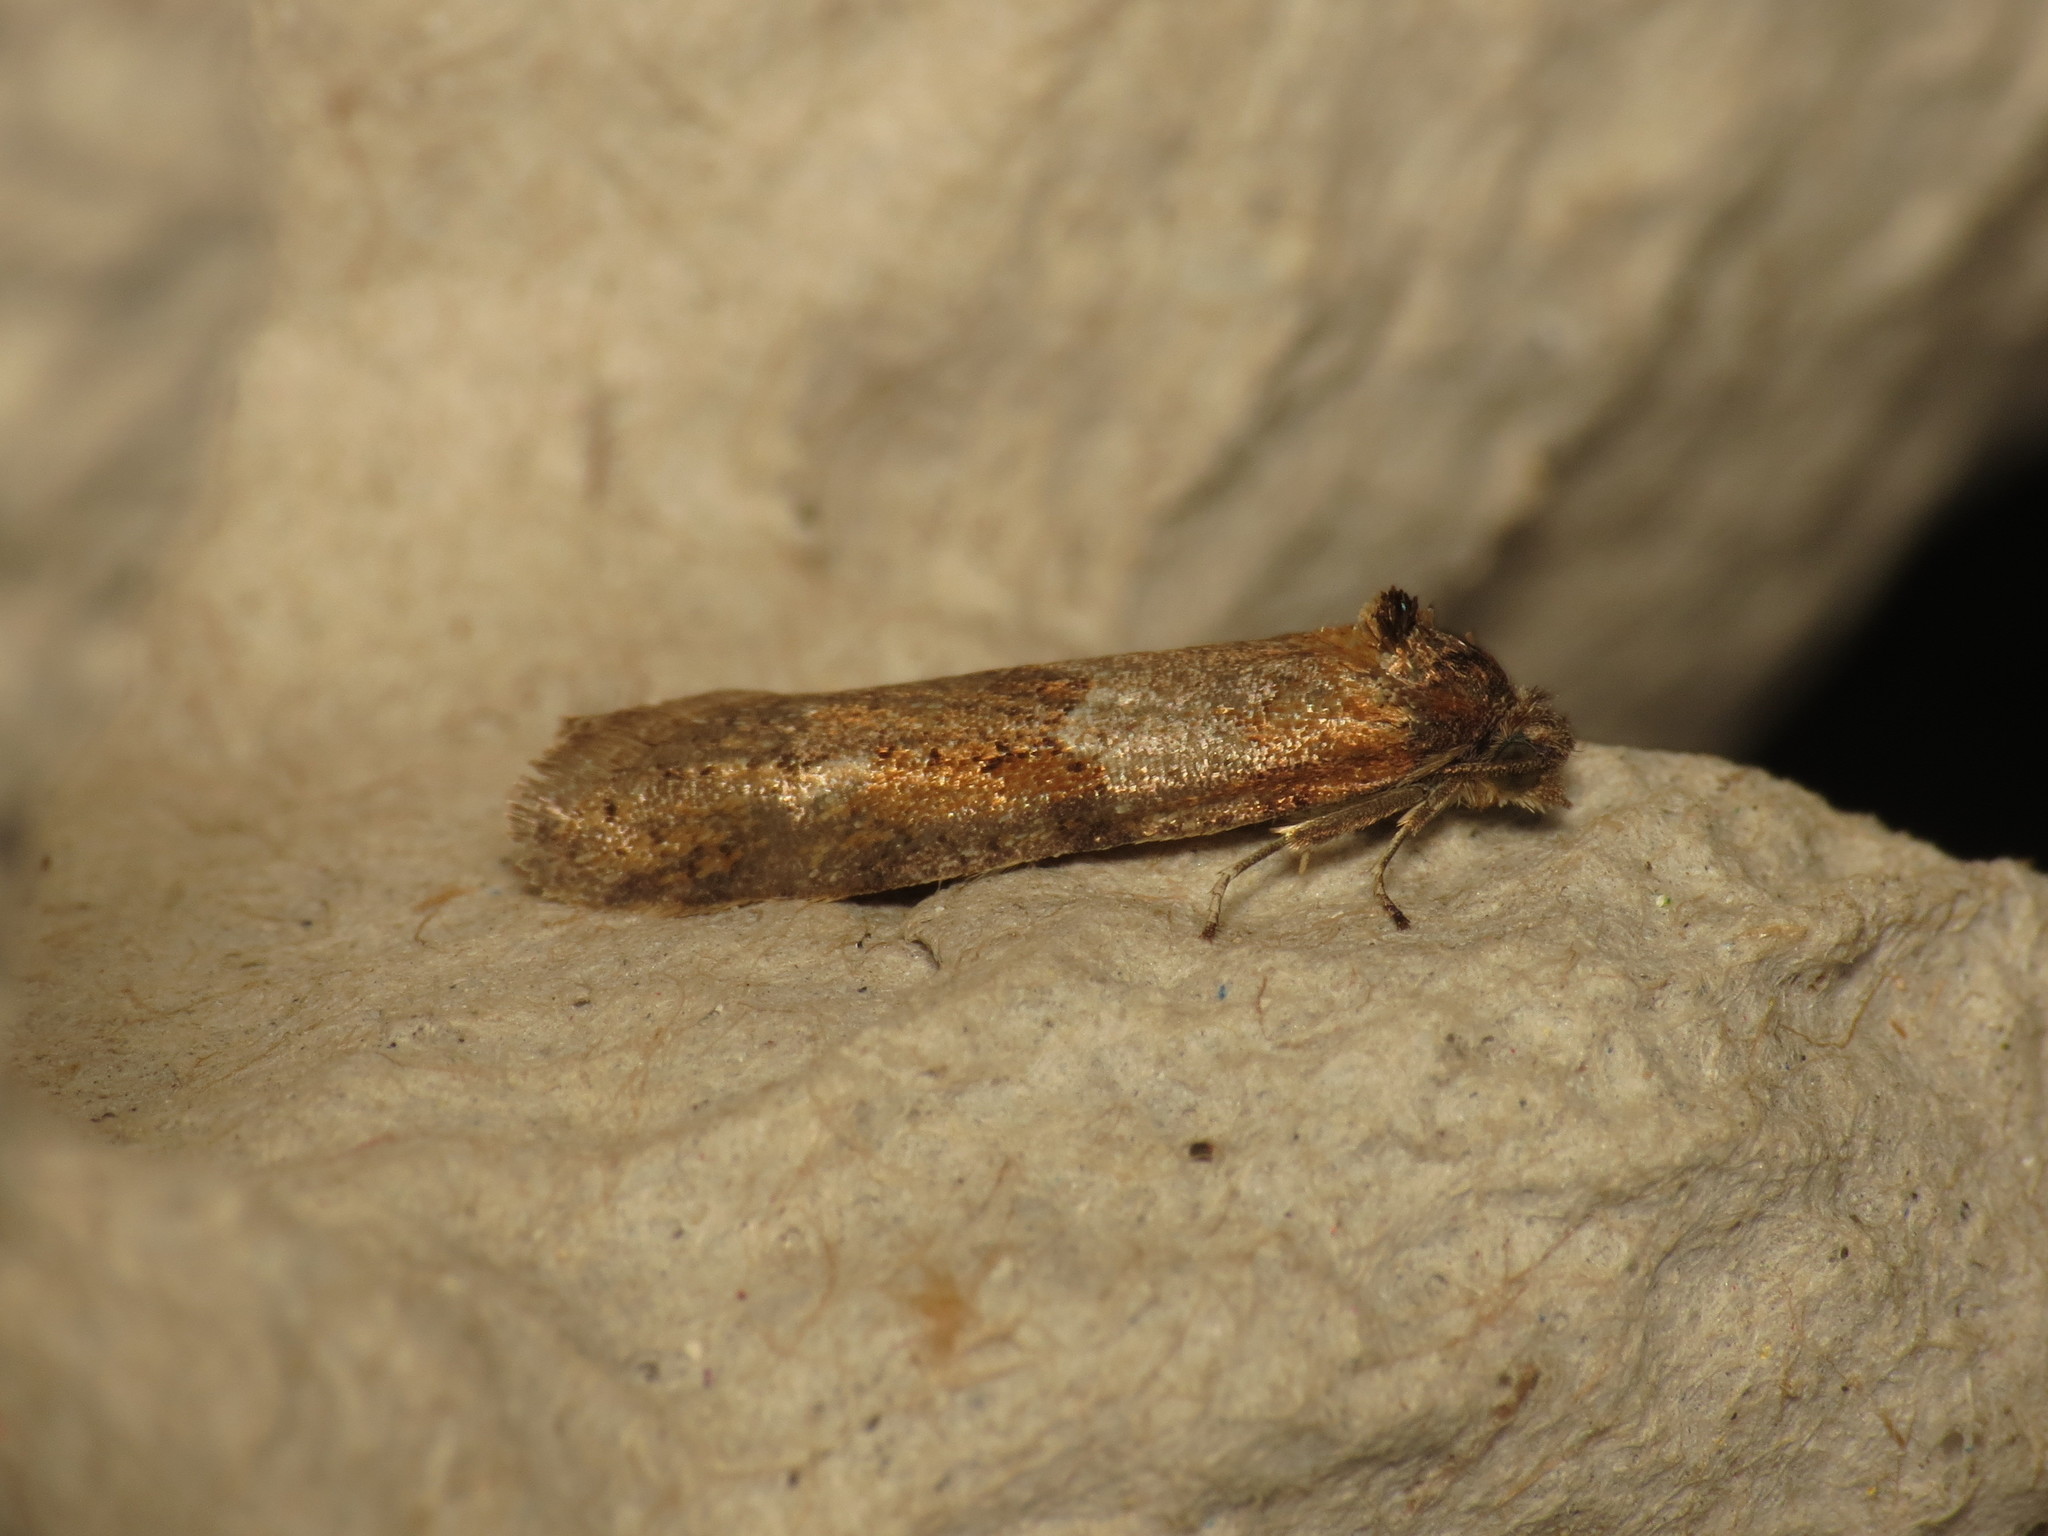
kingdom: Animalia
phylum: Arthropoda
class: Insecta
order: Lepidoptera
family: Tortricidae
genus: Tortricodes
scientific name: Tortricodes alternella
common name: Winter shade
